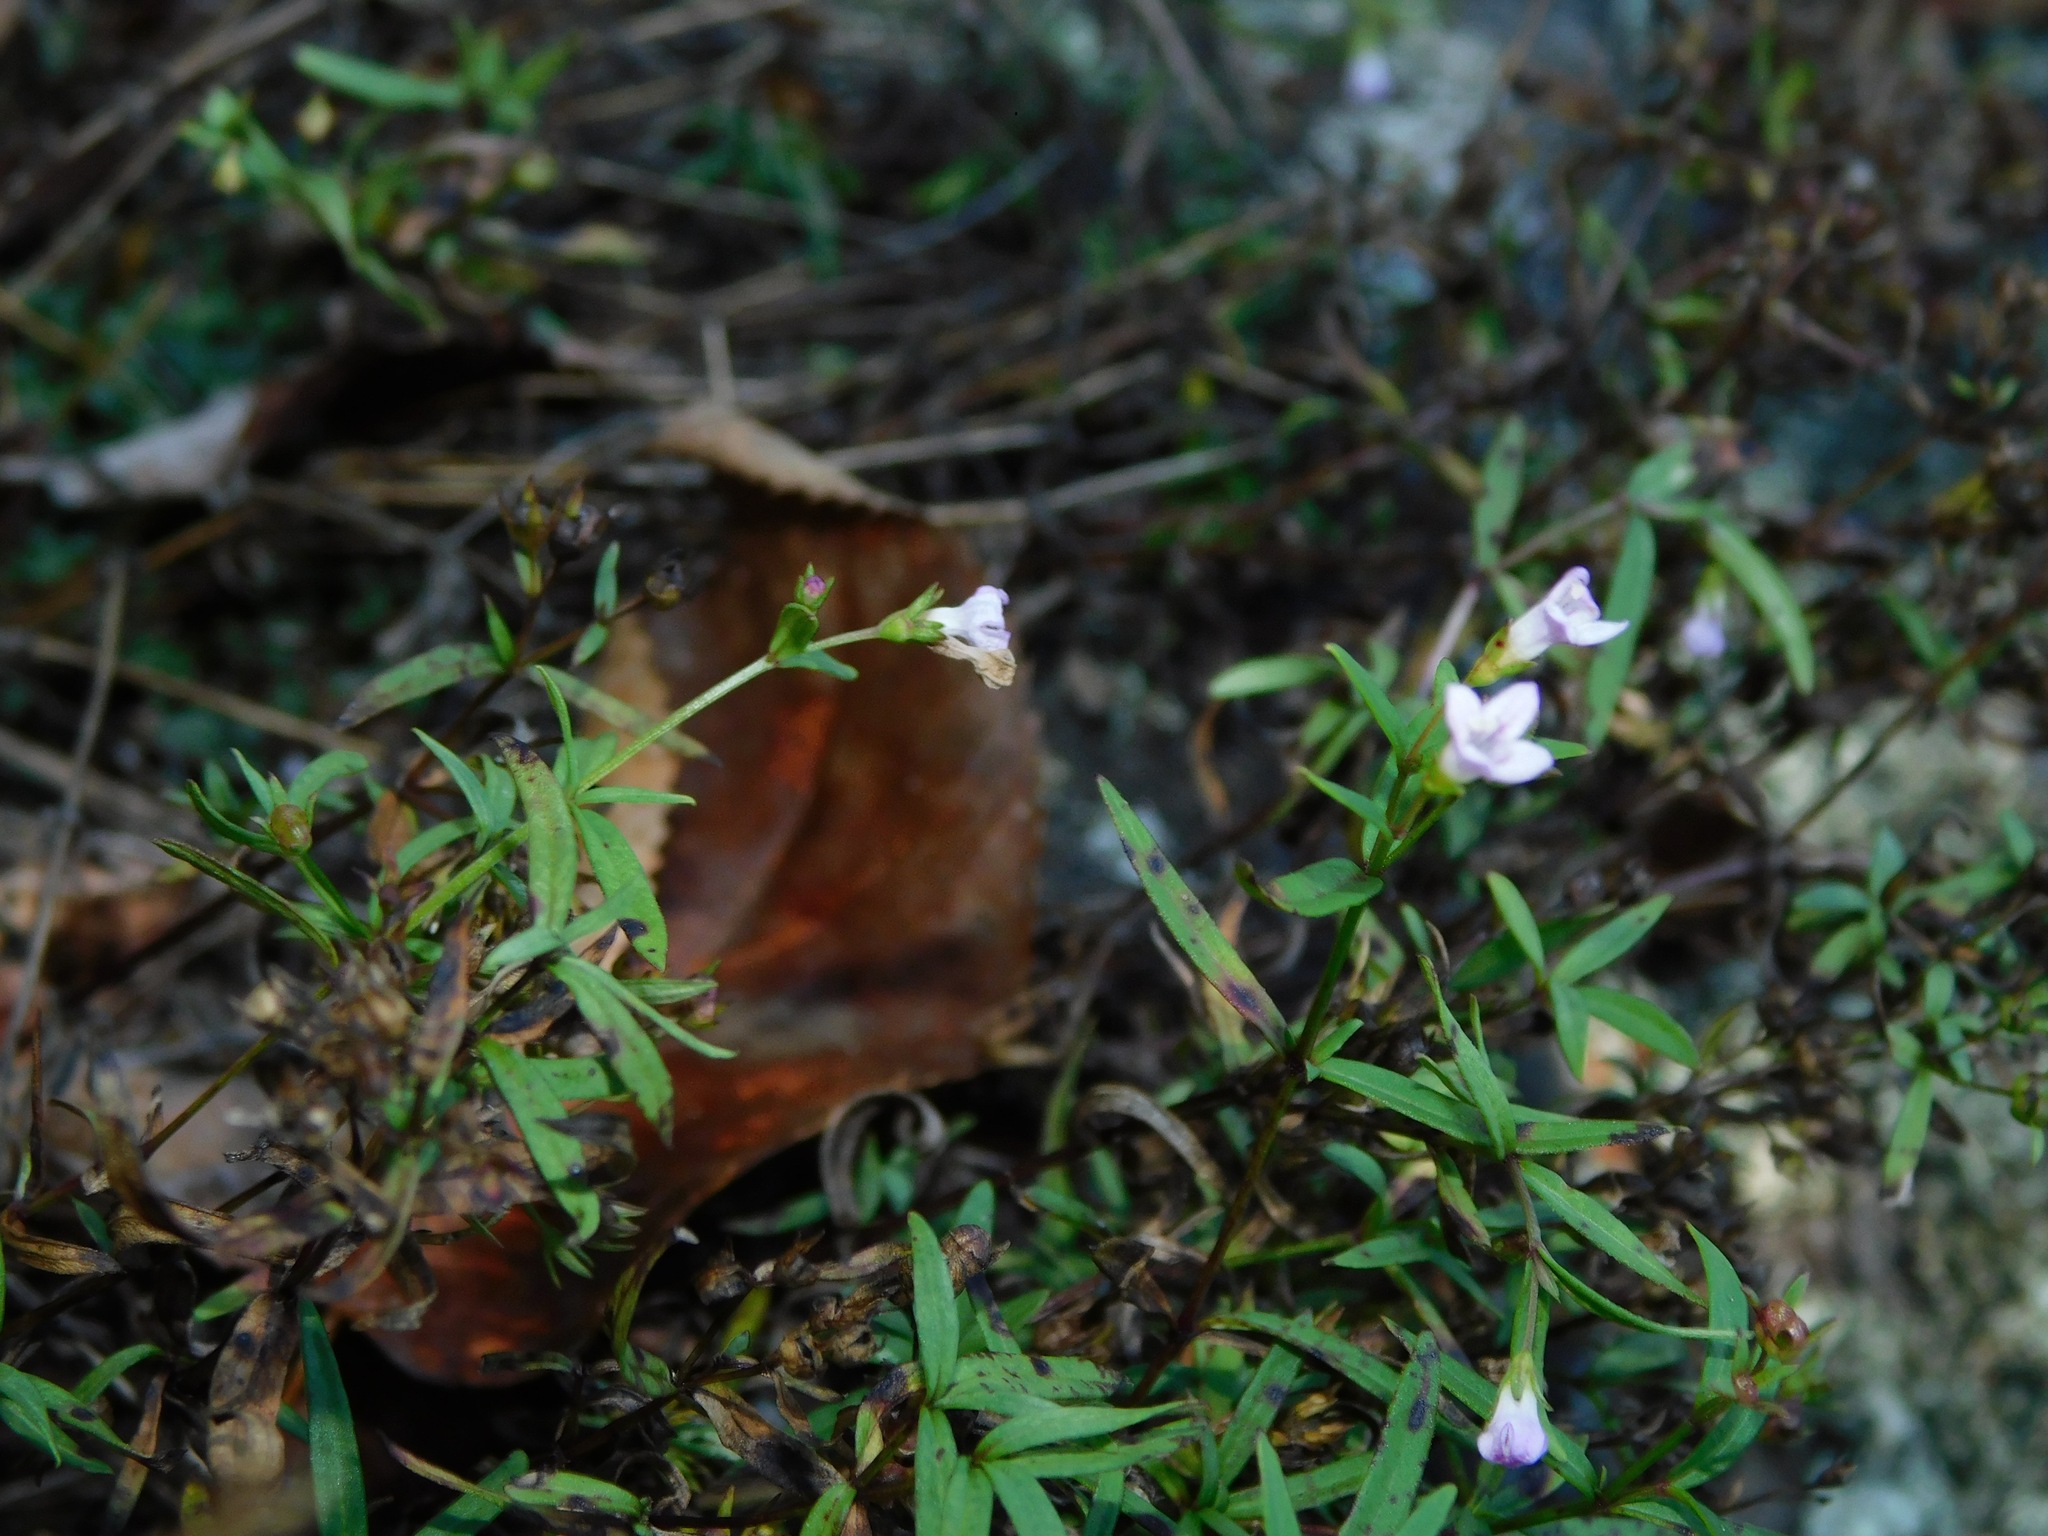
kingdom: Plantae
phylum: Tracheophyta
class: Magnoliopsida
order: Gentianales
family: Rubiaceae
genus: Houstonia
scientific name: Houstonia longifolia
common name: Long-leaved bluets
